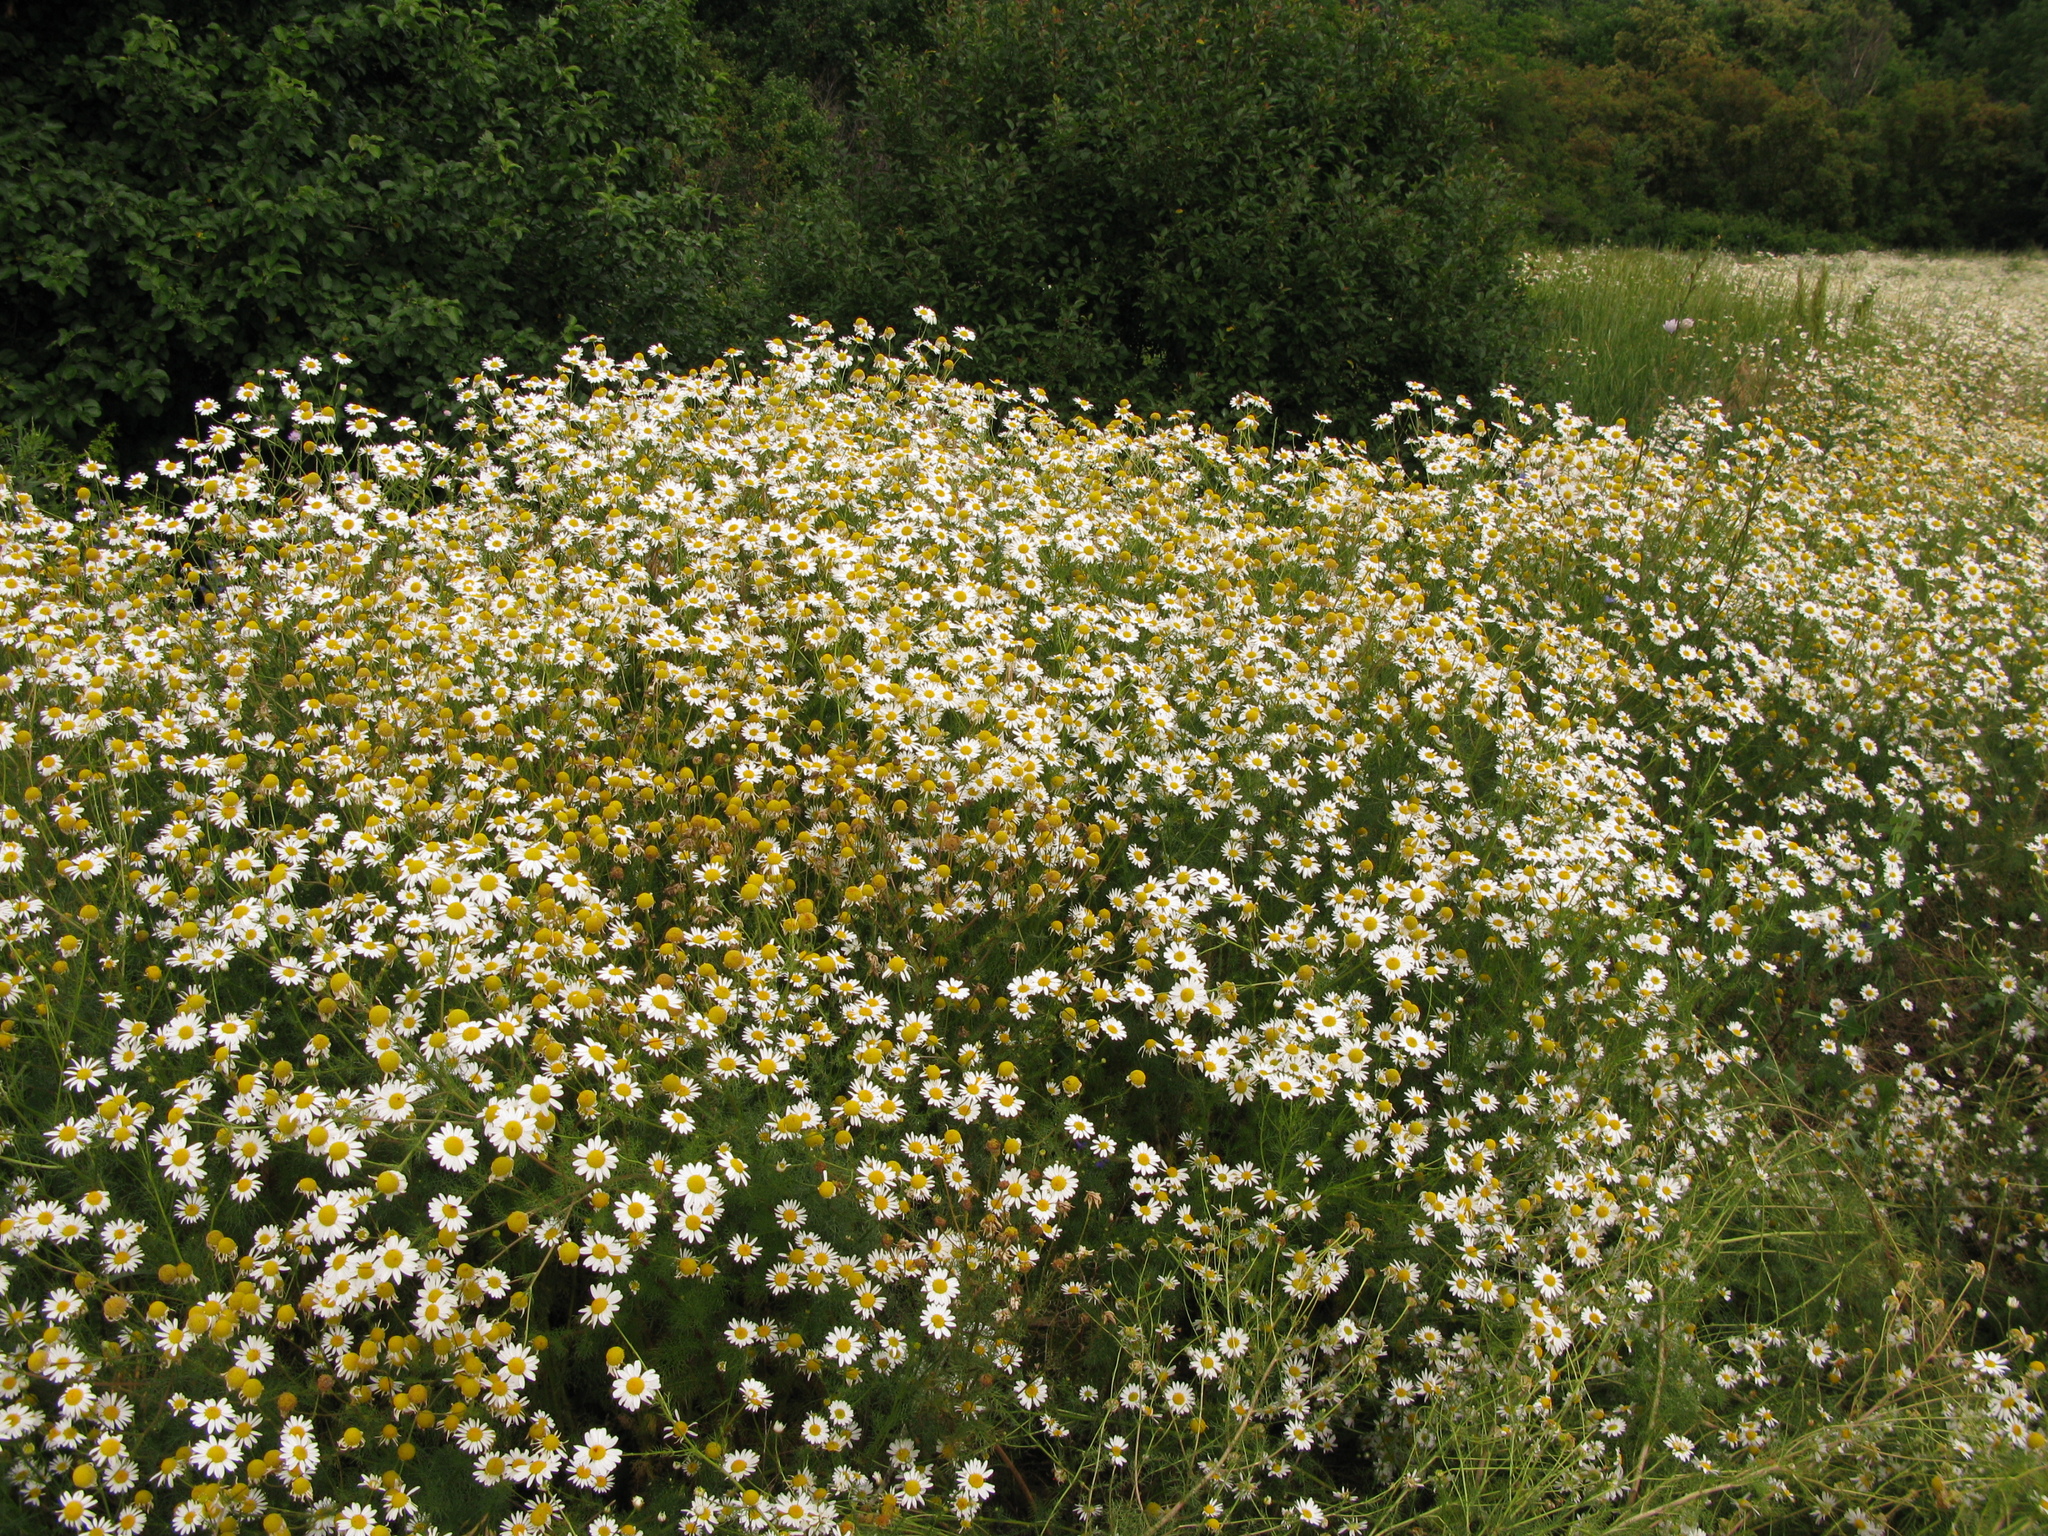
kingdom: Plantae
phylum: Tracheophyta
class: Magnoliopsida
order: Asterales
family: Asteraceae
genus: Matricaria
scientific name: Matricaria chamomilla
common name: Scented mayweed
